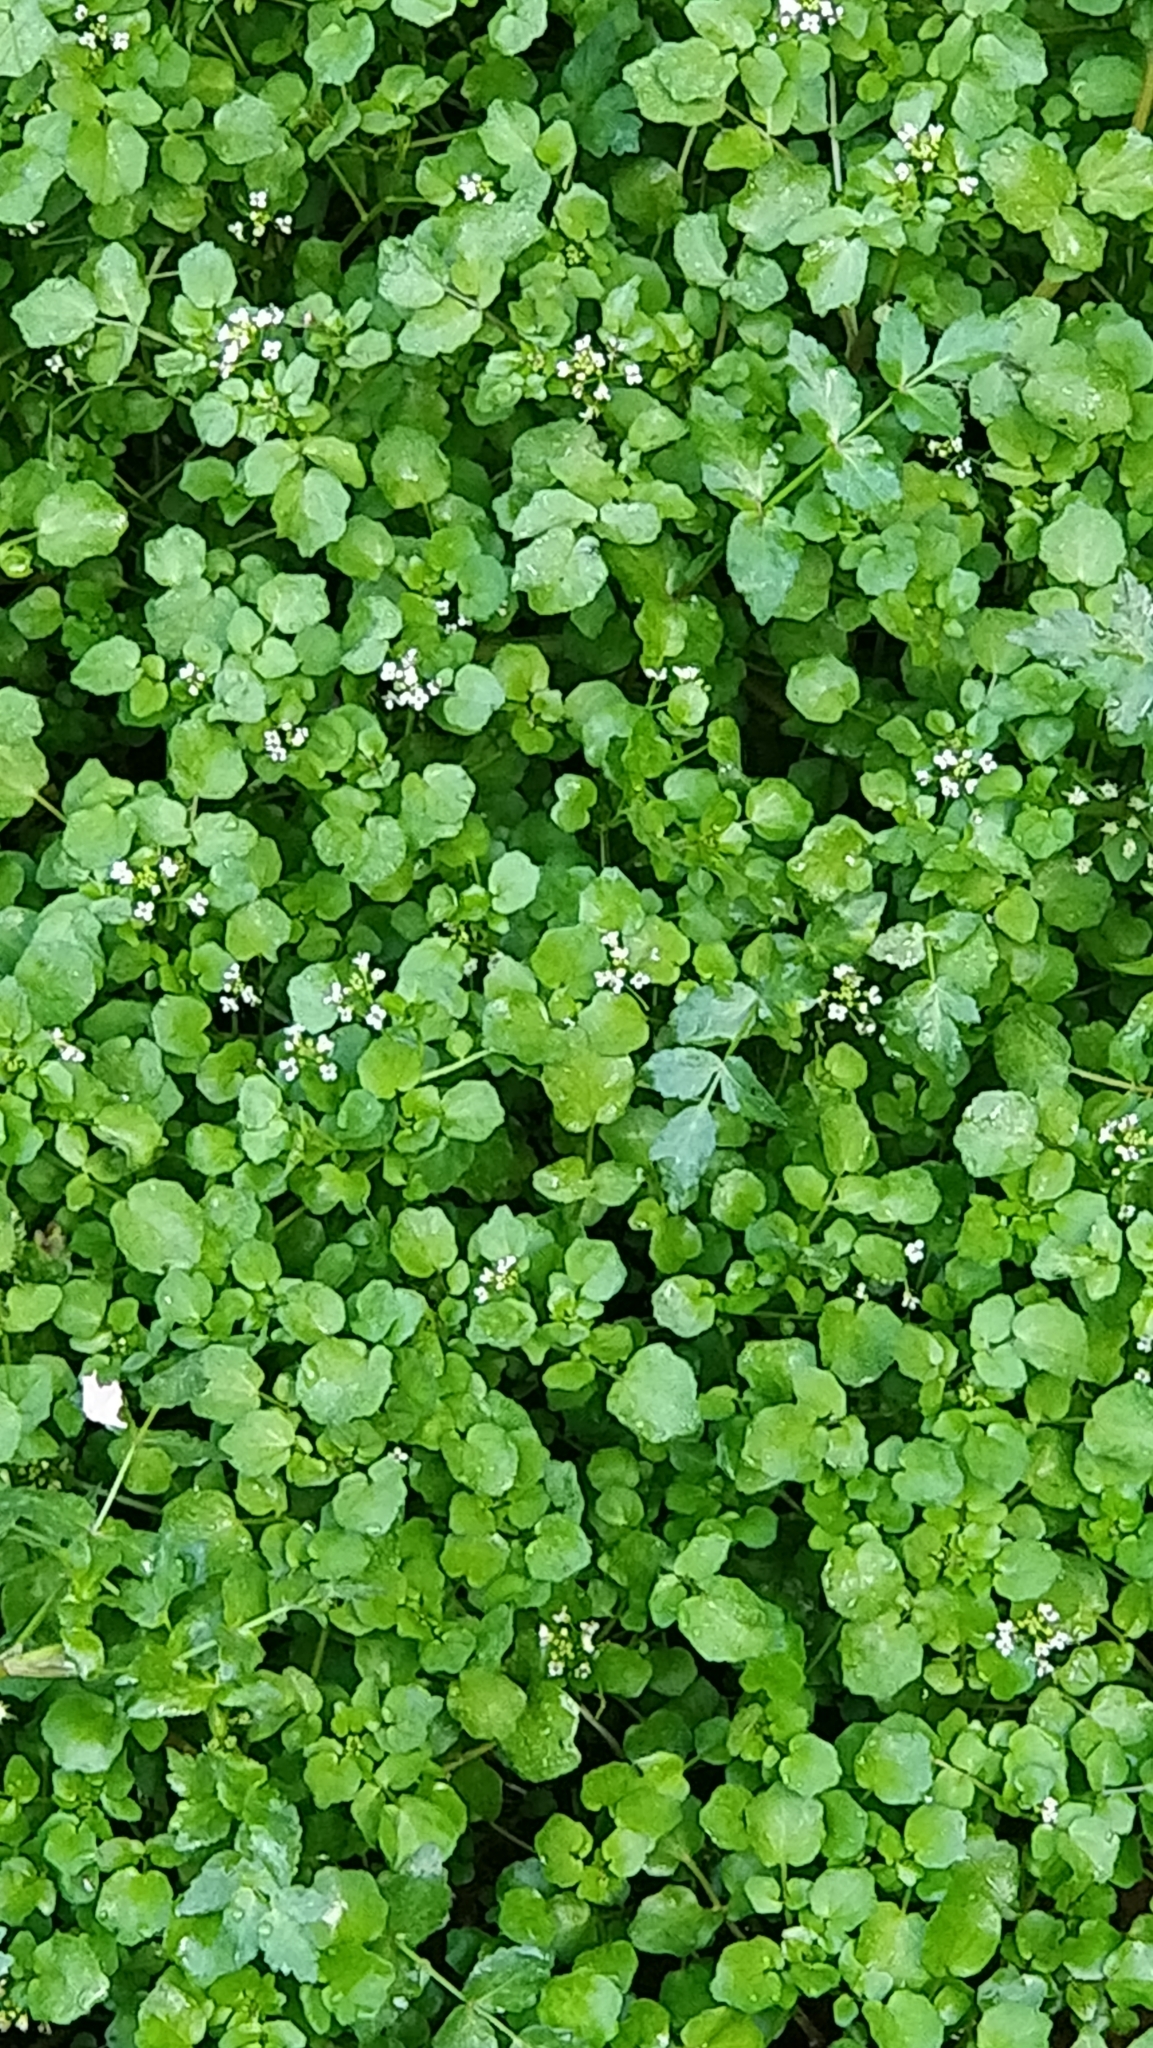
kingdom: Plantae
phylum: Tracheophyta
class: Magnoliopsida
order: Brassicales
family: Brassicaceae
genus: Nasturtium
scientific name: Nasturtium sterile
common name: Yellowcress
